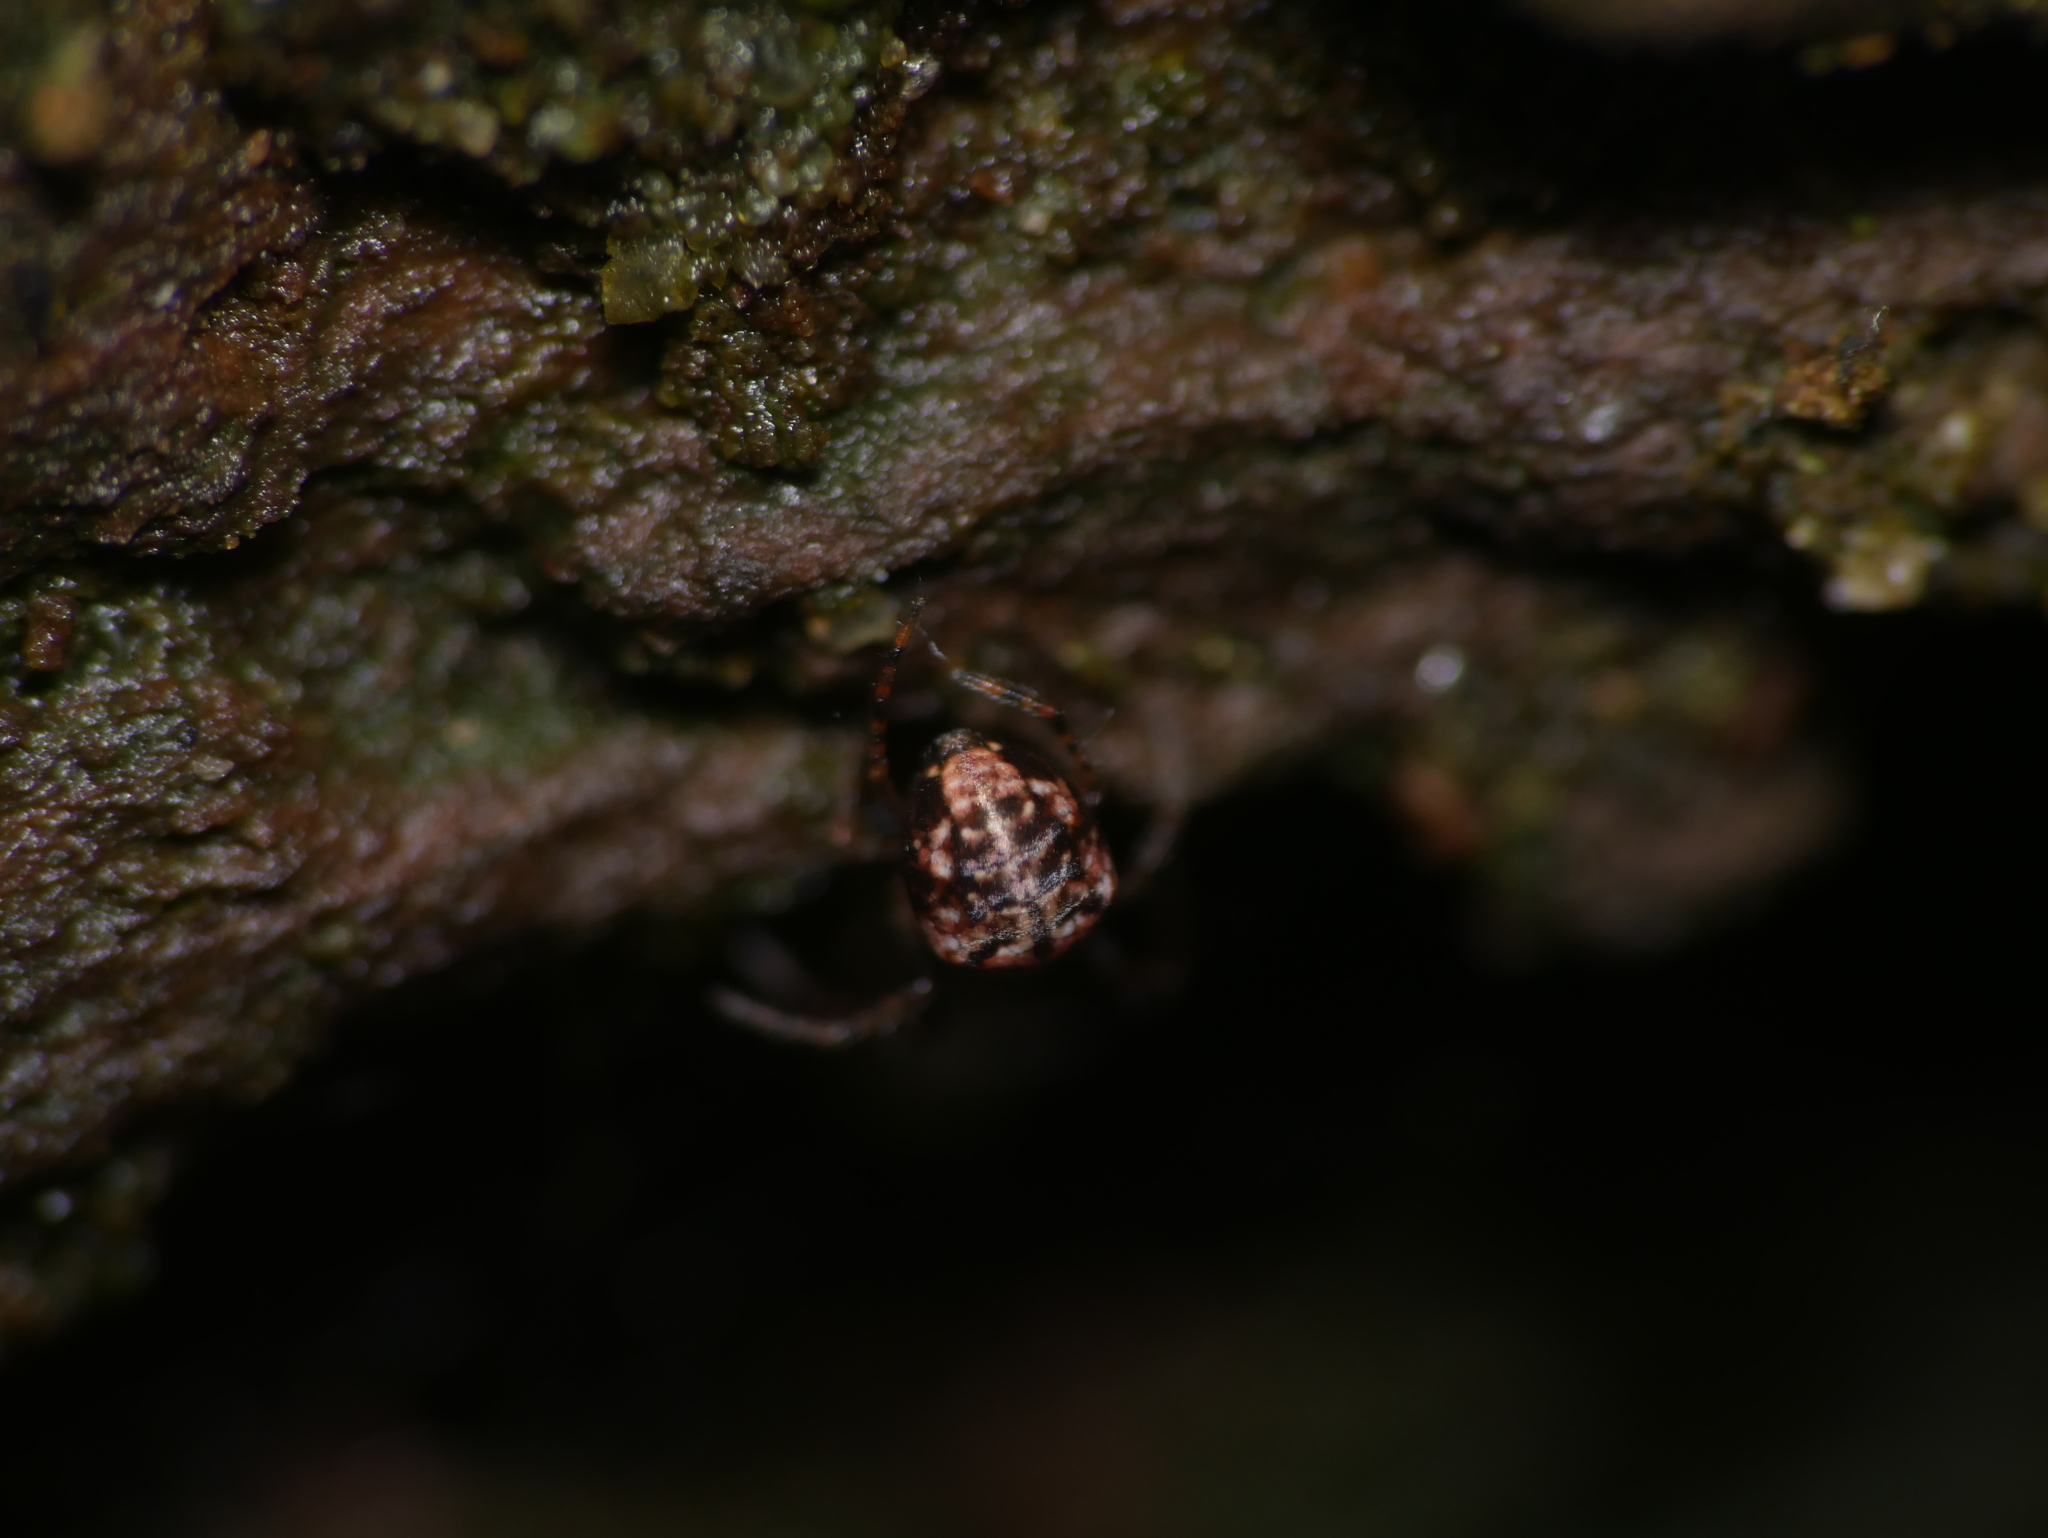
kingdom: Animalia
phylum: Arthropoda
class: Arachnida
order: Araneae
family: Tetragnathidae
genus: Metellina
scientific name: Metellina merianae
